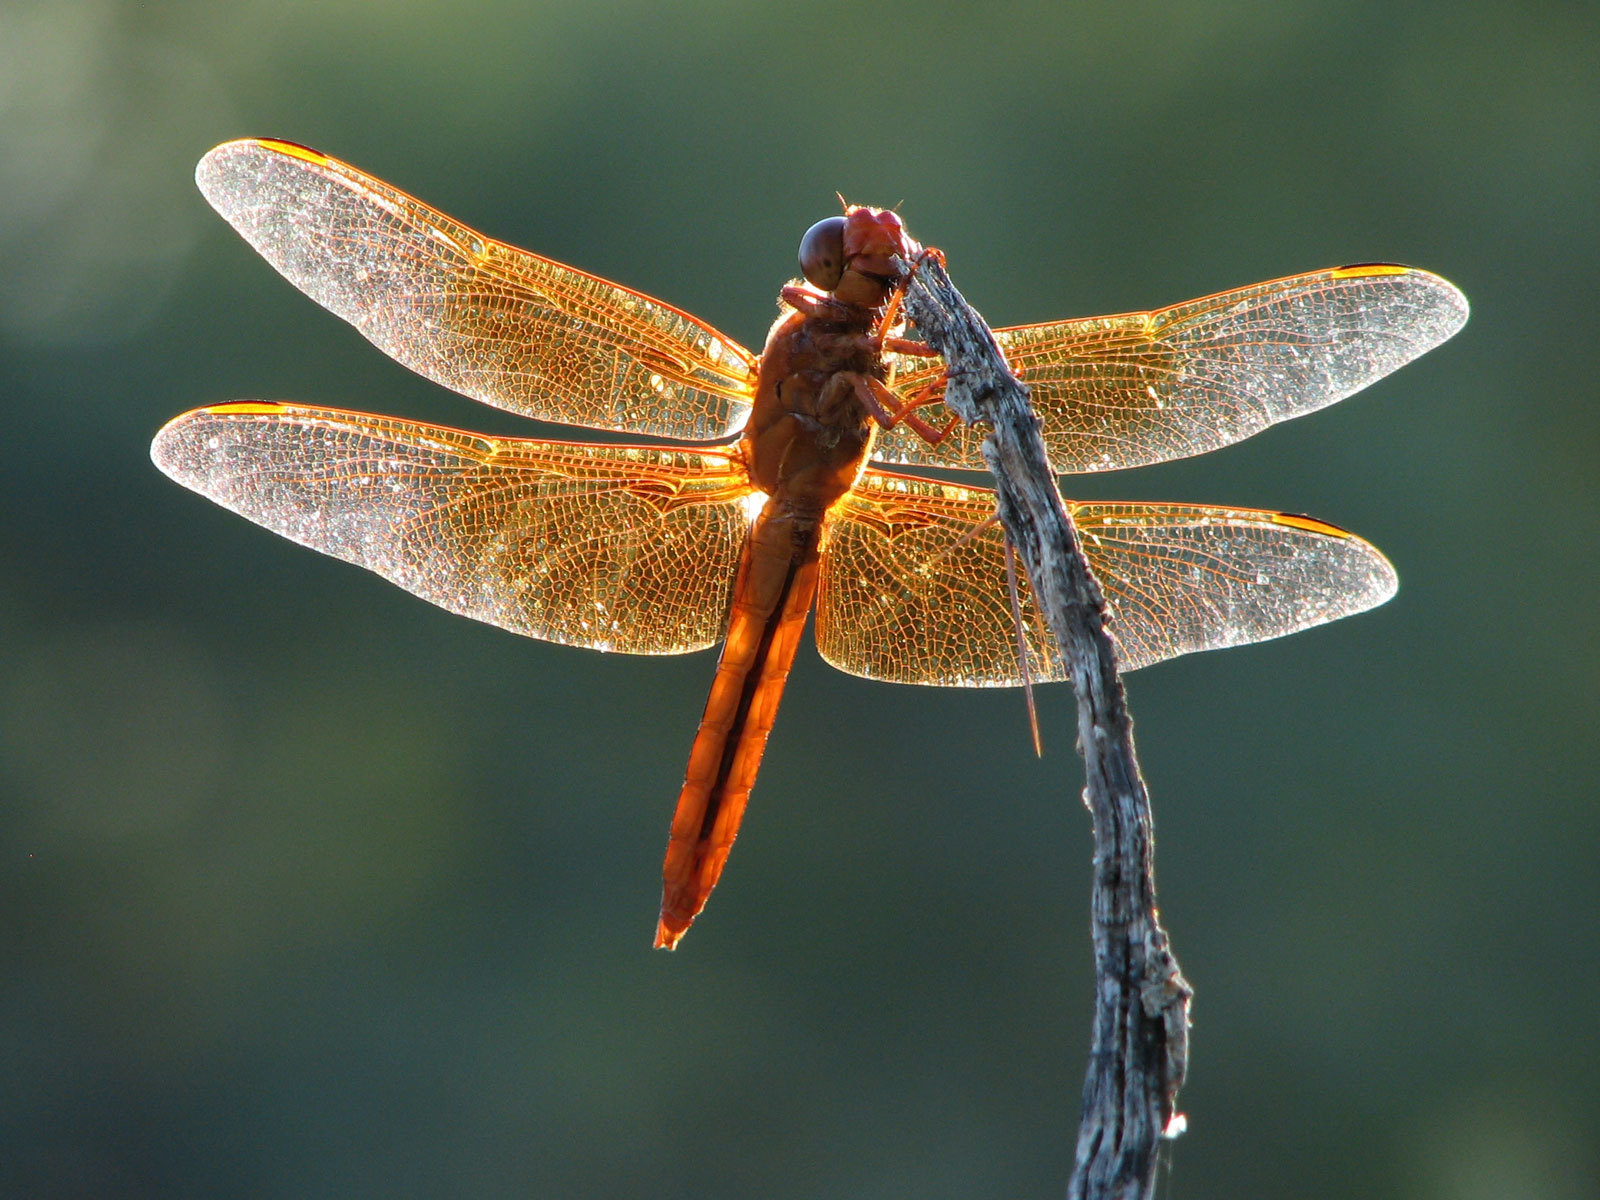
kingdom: Animalia
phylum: Arthropoda
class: Insecta
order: Odonata
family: Libellulidae
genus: Libellula
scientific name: Libellula saturata
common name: Flame skimmer
